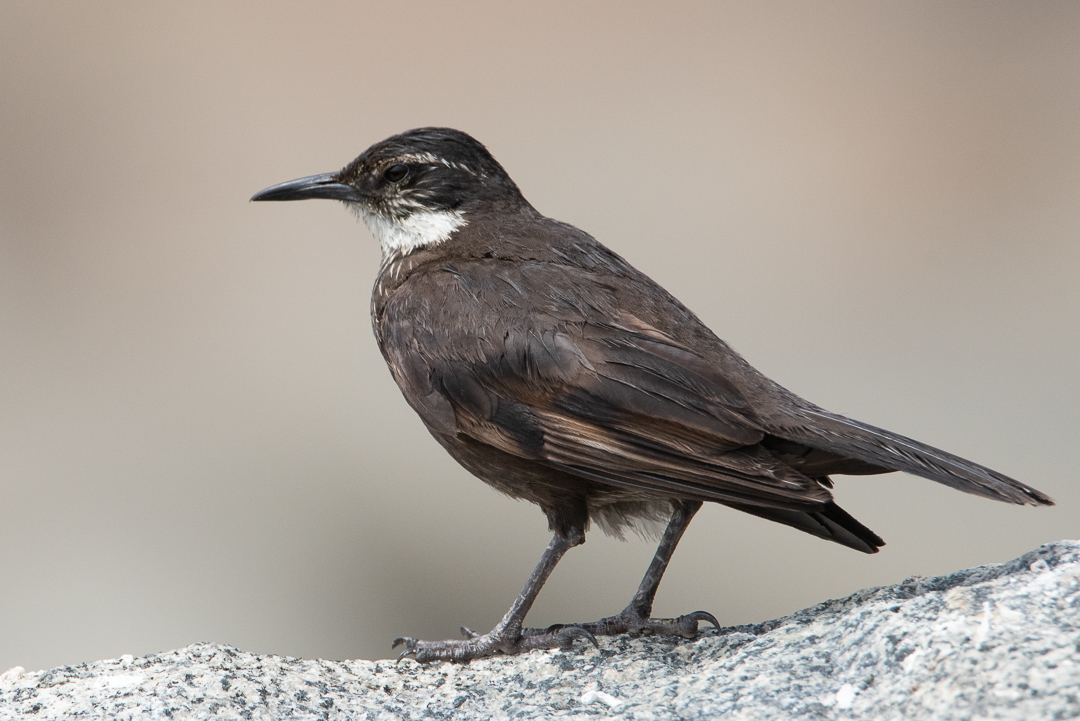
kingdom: Animalia
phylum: Chordata
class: Aves
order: Passeriformes
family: Furnariidae
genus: Cinclodes
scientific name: Cinclodes nigrofumosus
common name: Chilean seaside cinclodes
